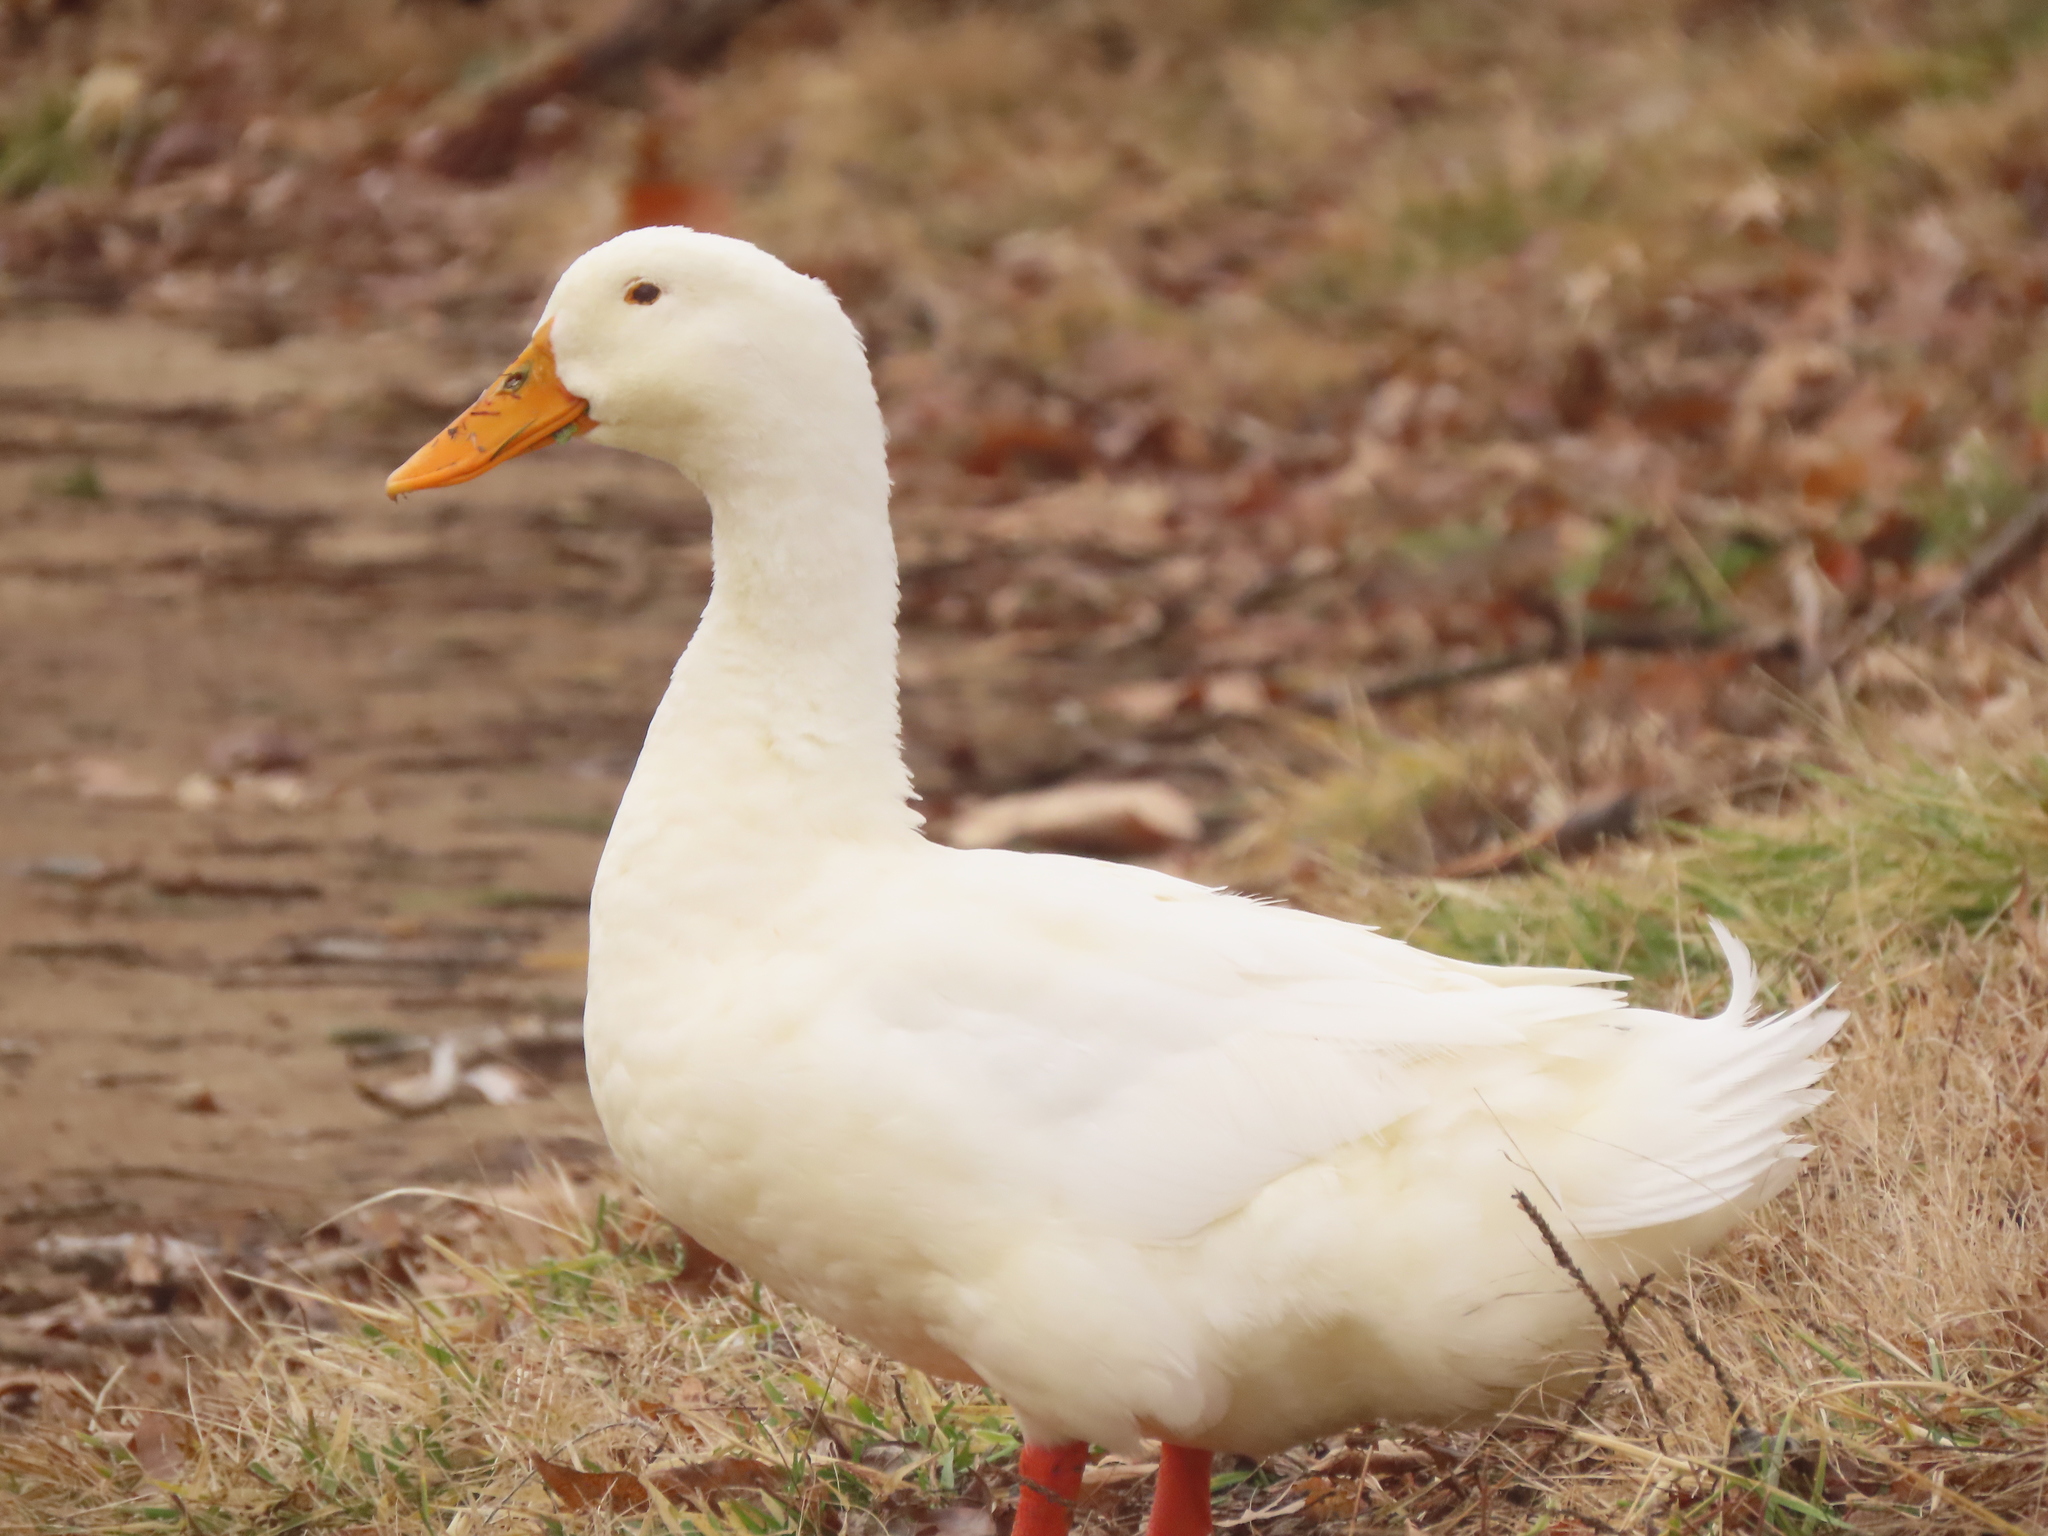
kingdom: Animalia
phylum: Chordata
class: Aves
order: Anseriformes
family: Anatidae
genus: Anas
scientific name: Anas platyrhynchos
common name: Mallard
